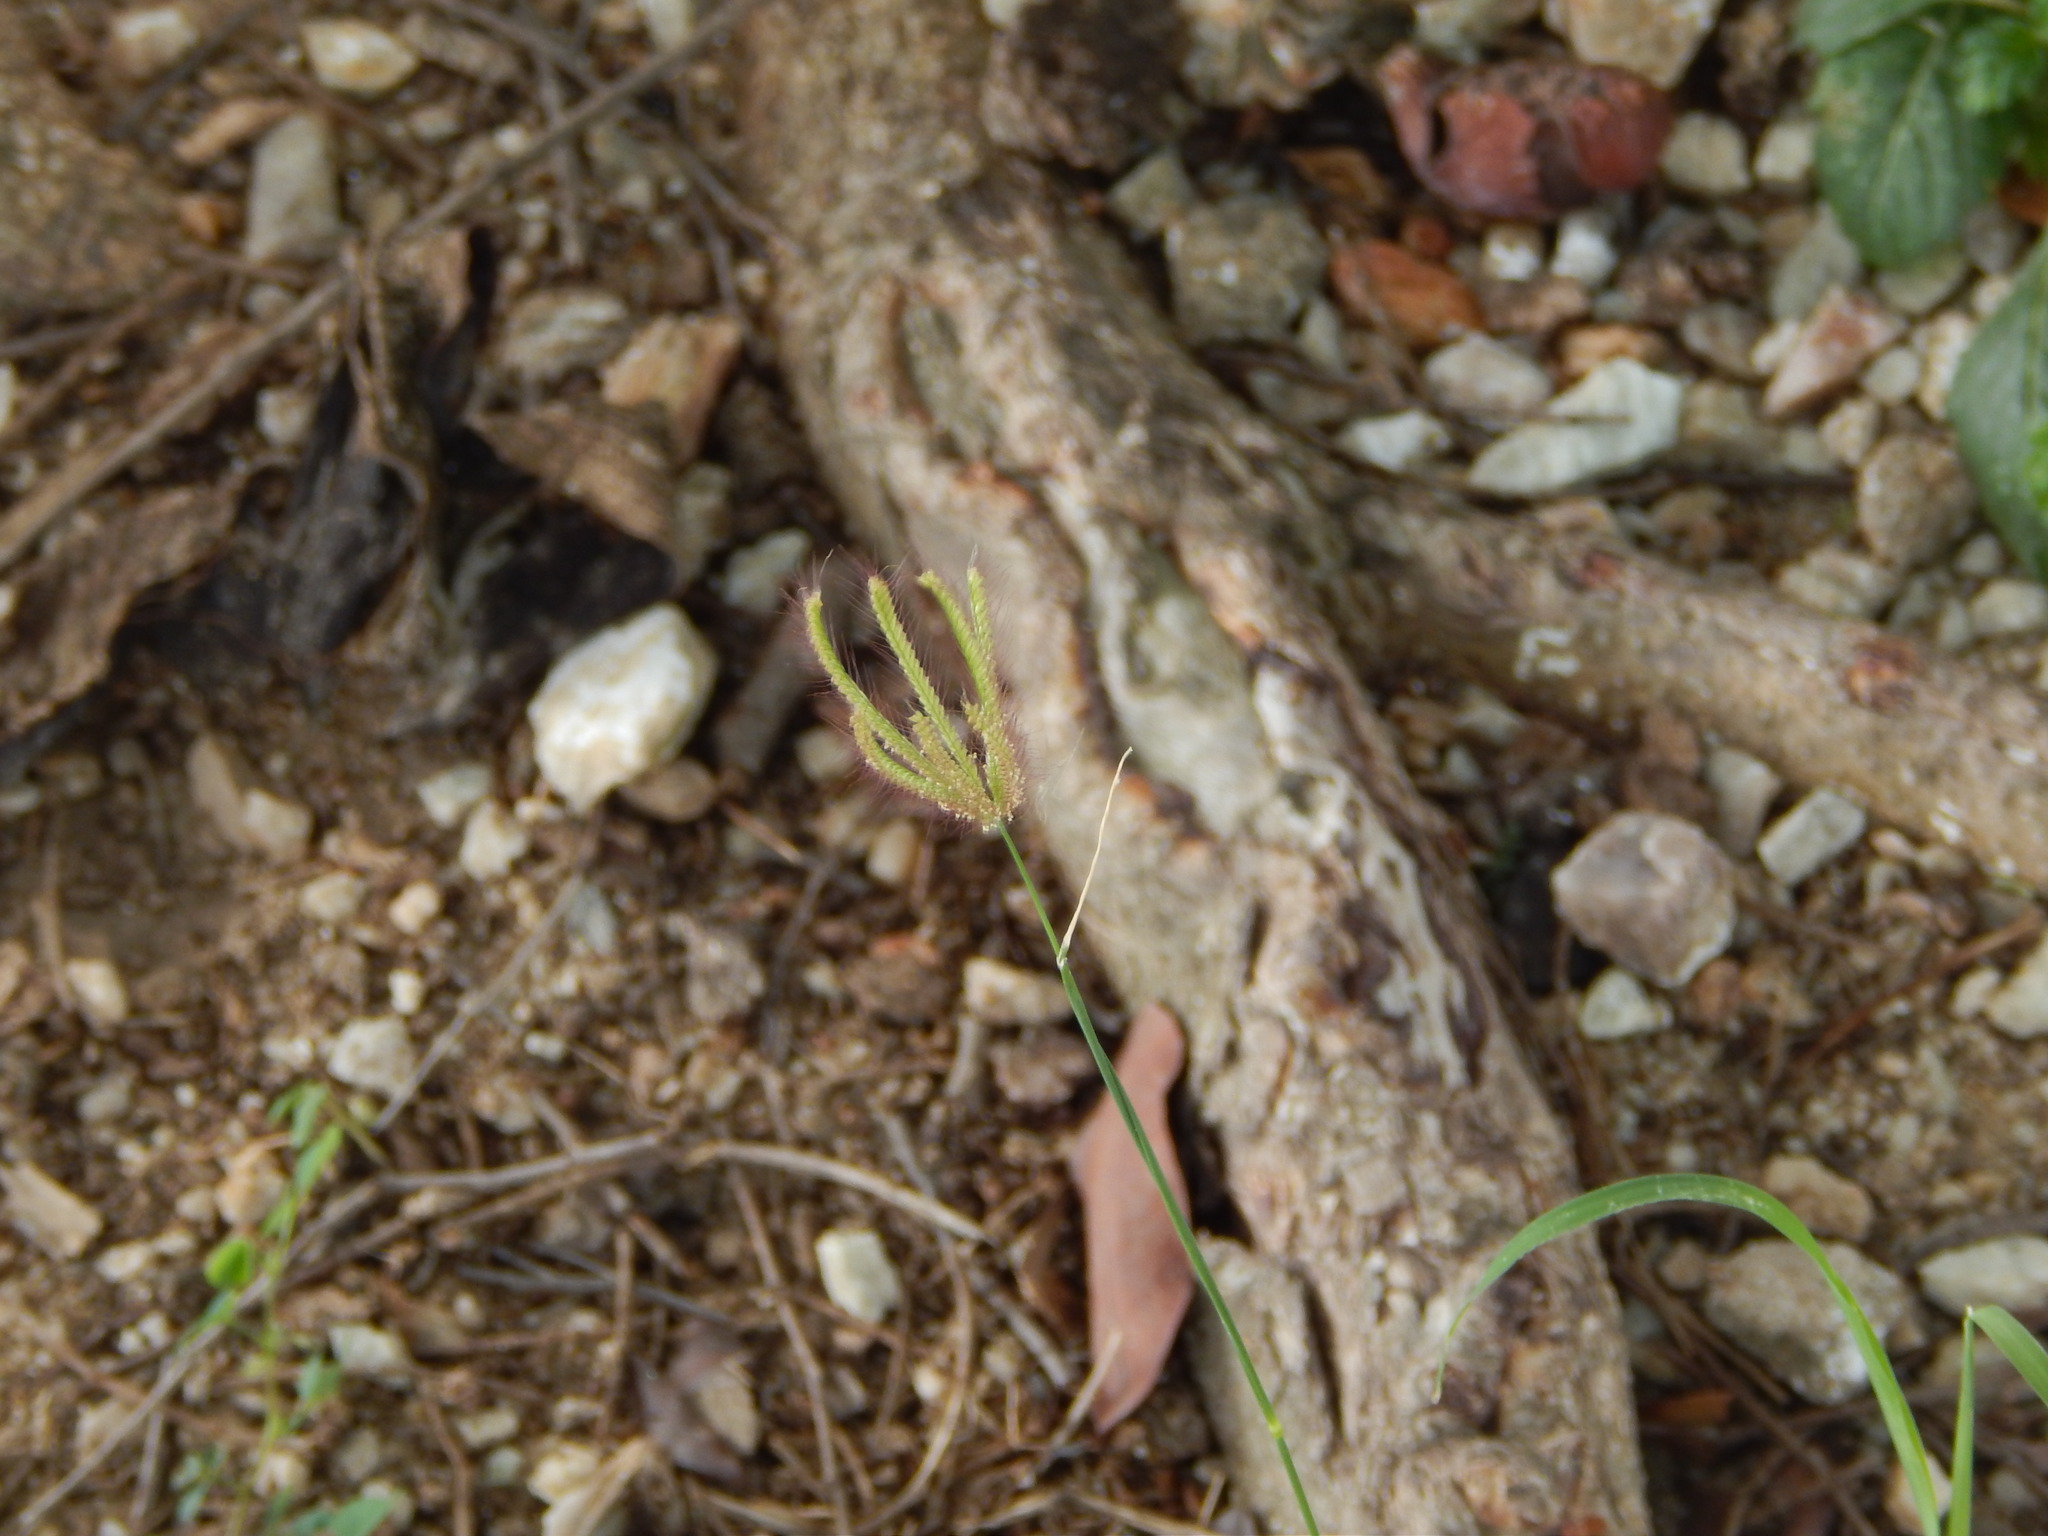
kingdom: Plantae
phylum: Tracheophyta
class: Liliopsida
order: Poales
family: Poaceae
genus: Chloris
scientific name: Chloris barbata
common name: Swollen fingergrass
